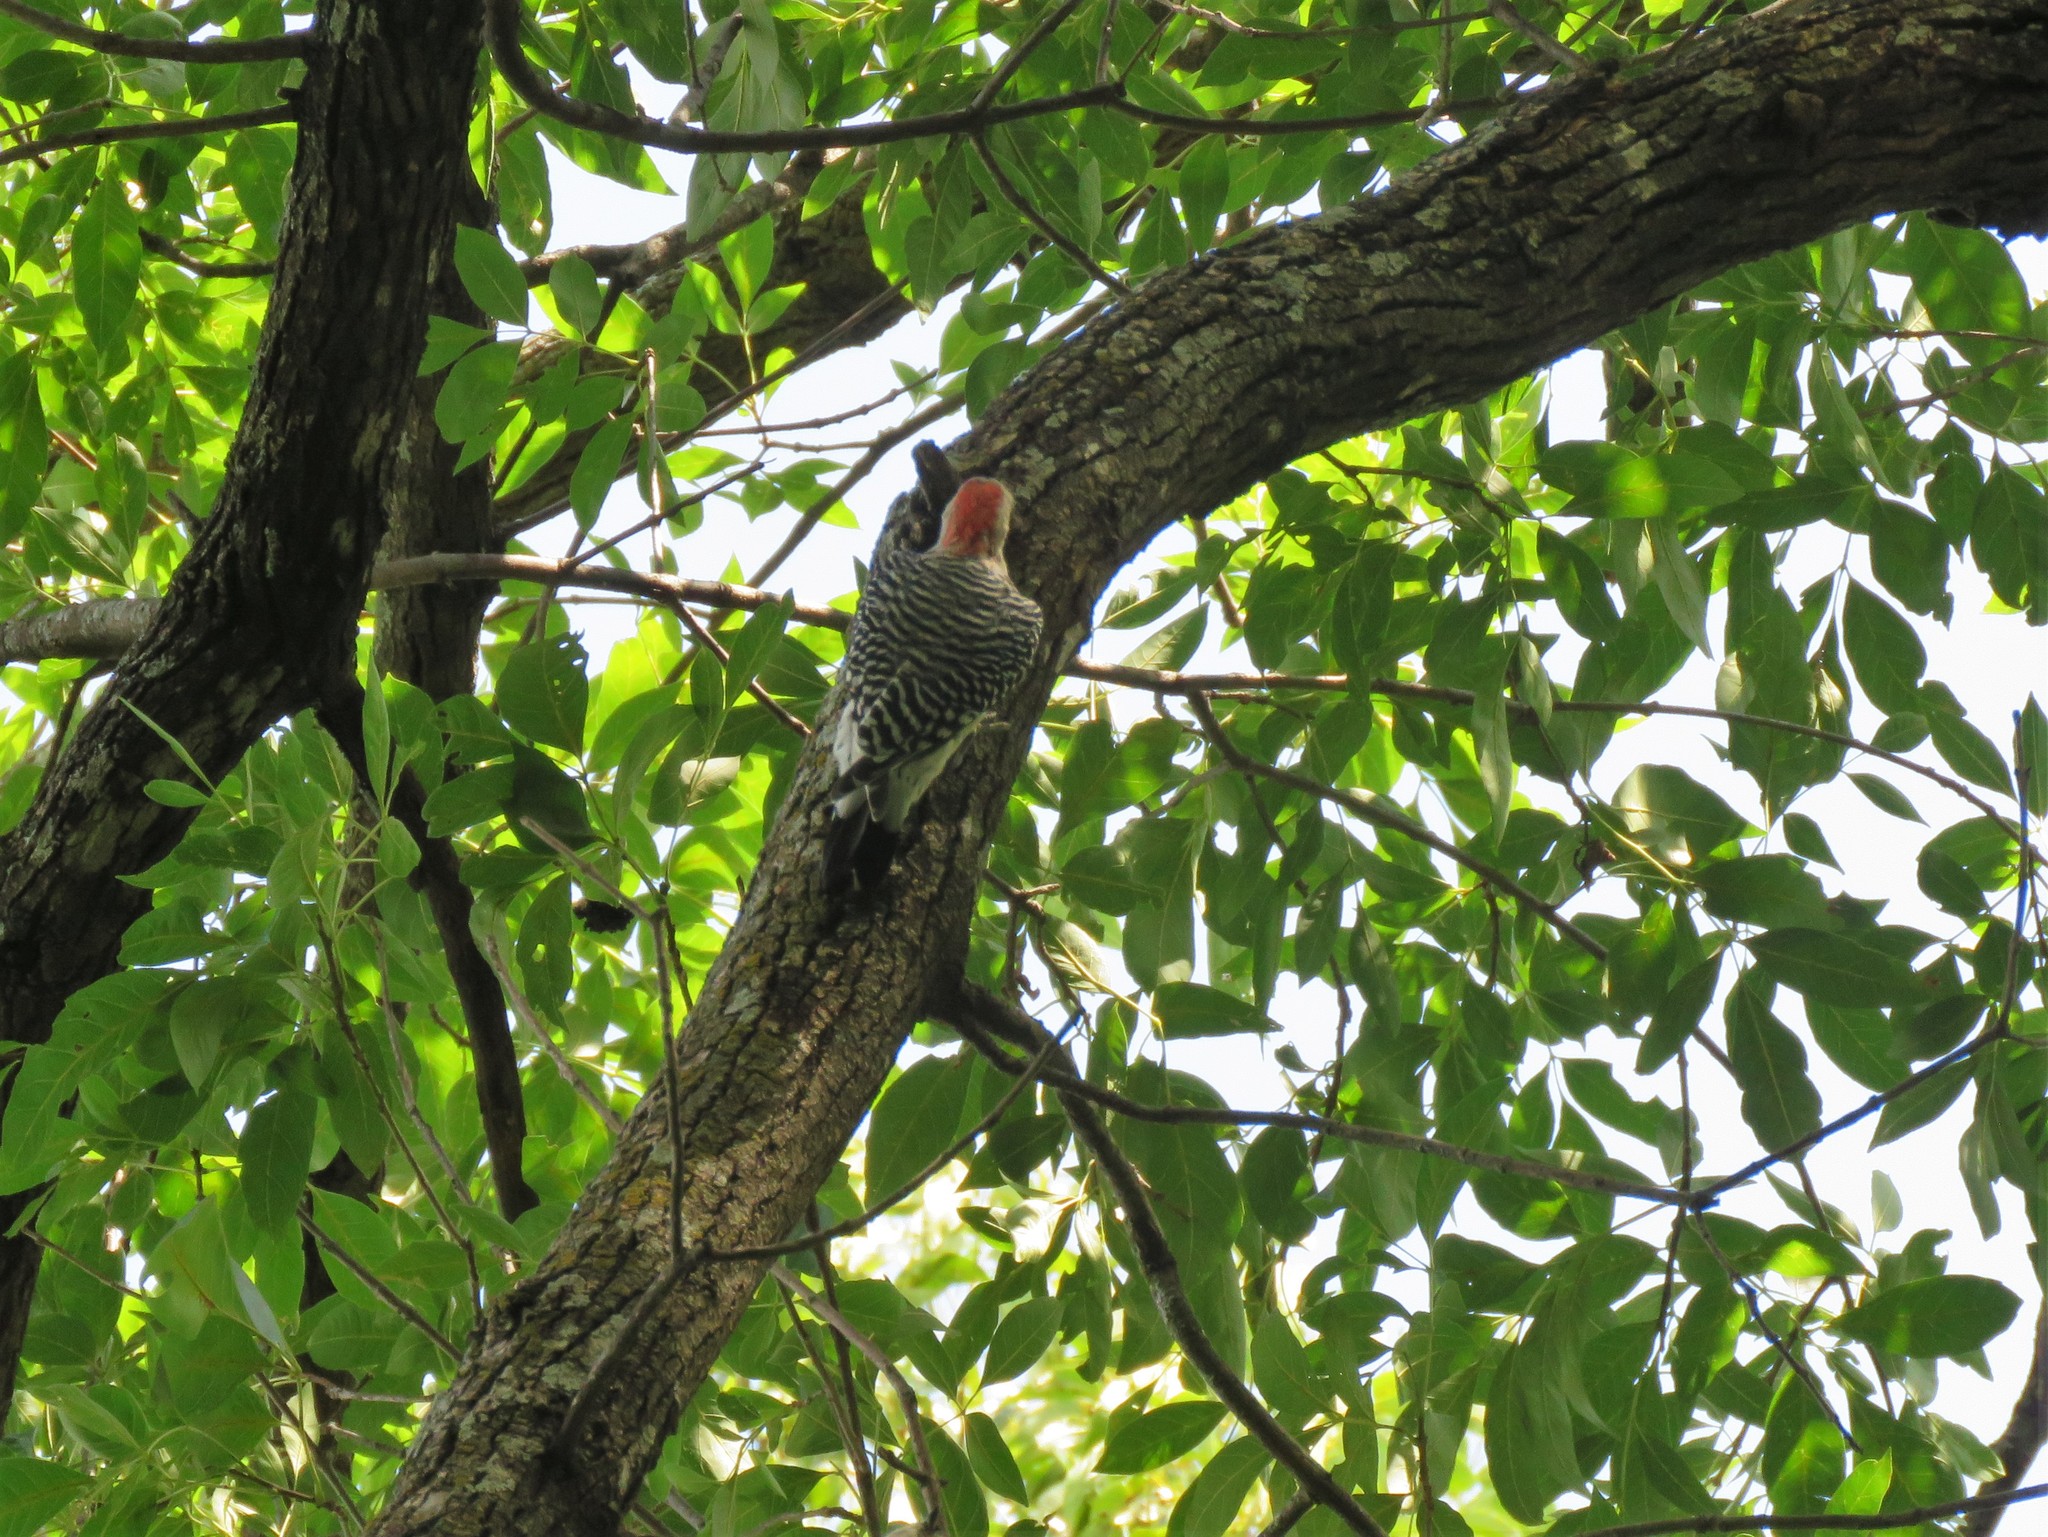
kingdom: Animalia
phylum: Chordata
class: Aves
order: Piciformes
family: Picidae
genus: Melanerpes
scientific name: Melanerpes carolinus
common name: Red-bellied woodpecker
